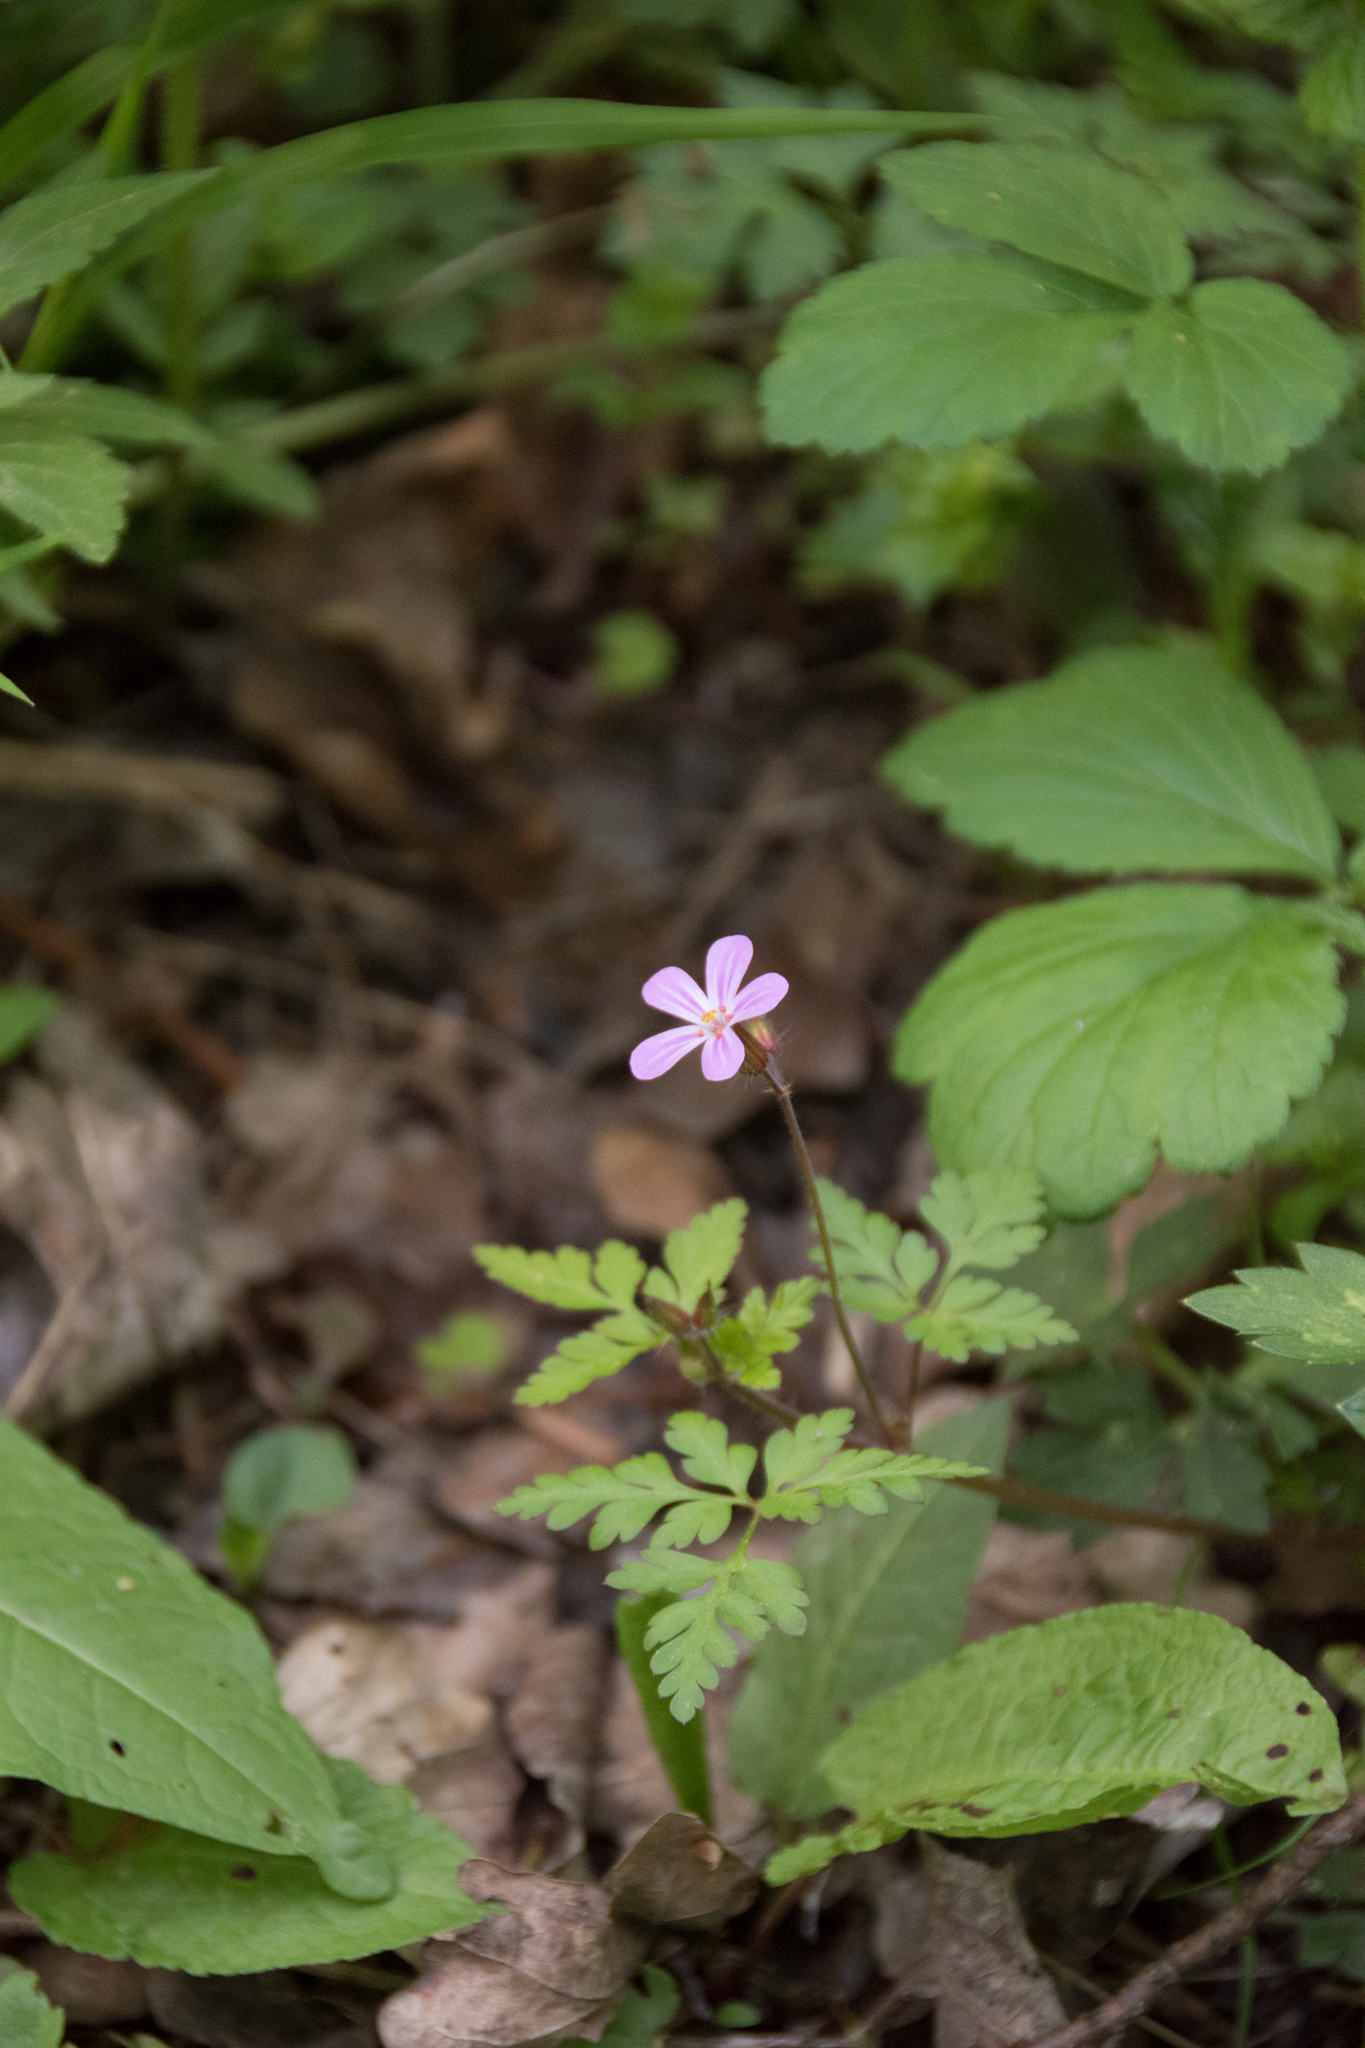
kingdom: Plantae
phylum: Tracheophyta
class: Magnoliopsida
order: Geraniales
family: Geraniaceae
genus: Geranium
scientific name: Geranium robertianum
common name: Herb-robert
